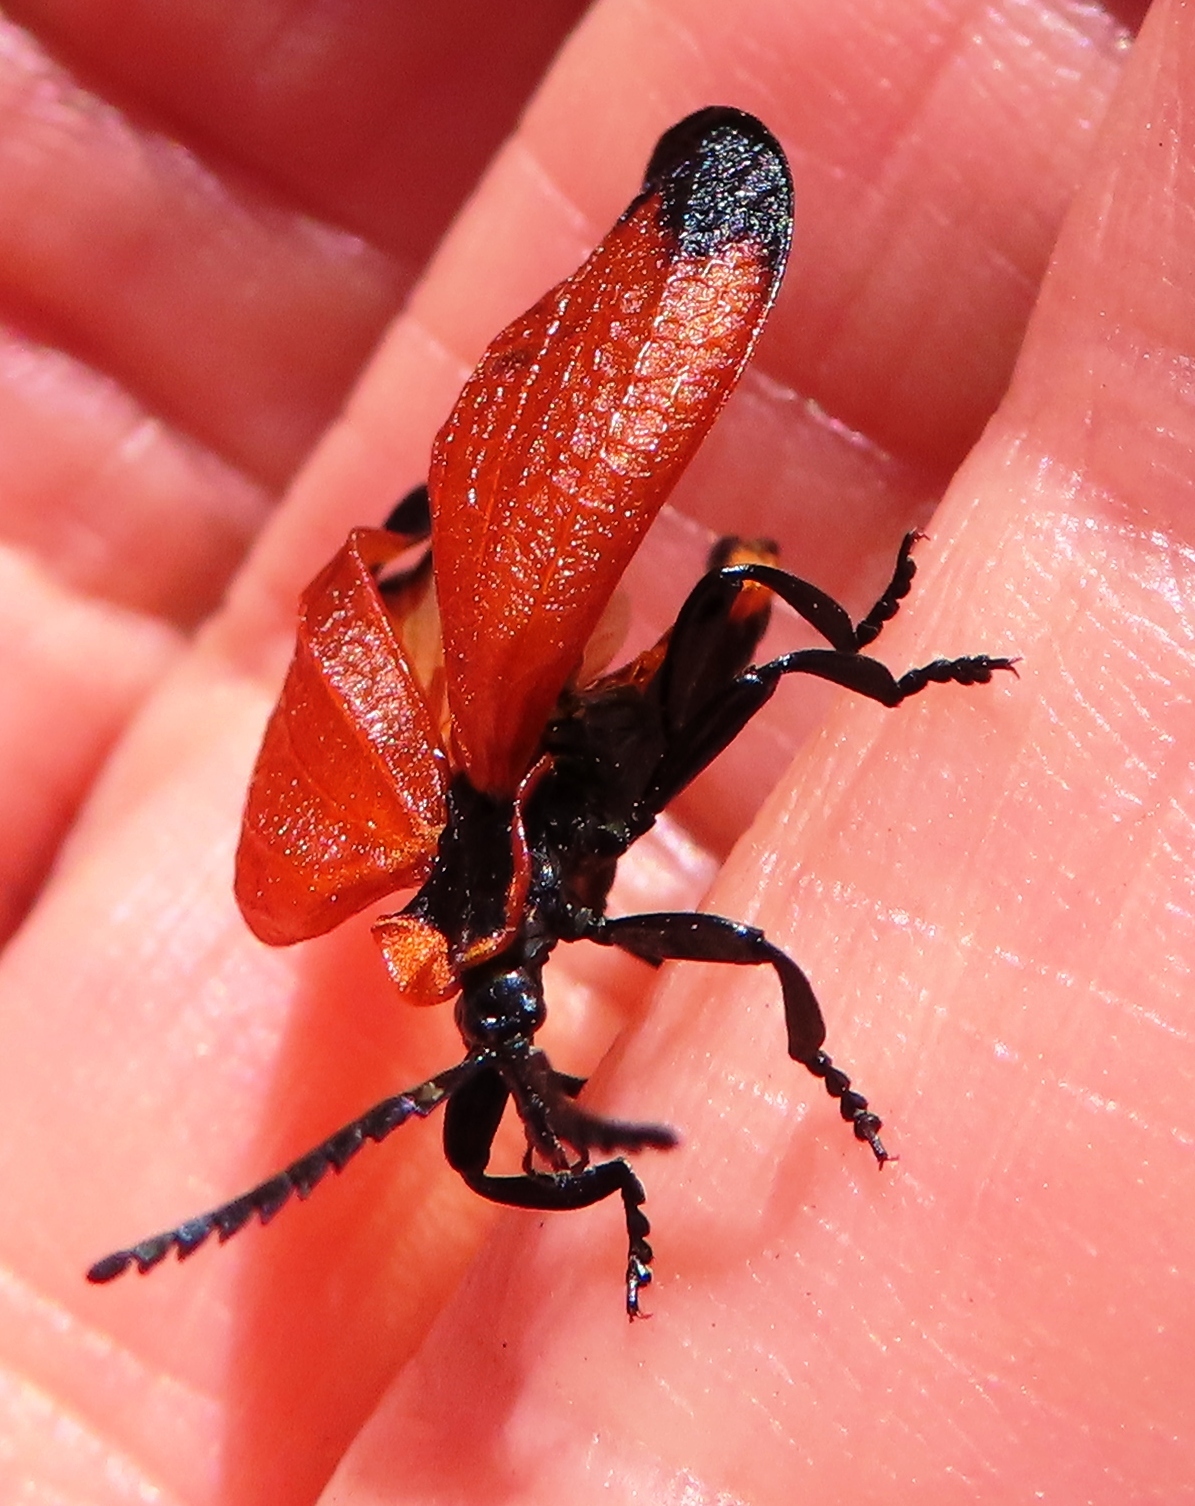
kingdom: Animalia
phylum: Arthropoda
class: Insecta
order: Coleoptera
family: Lycidae
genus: Lycus
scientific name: Lycus
